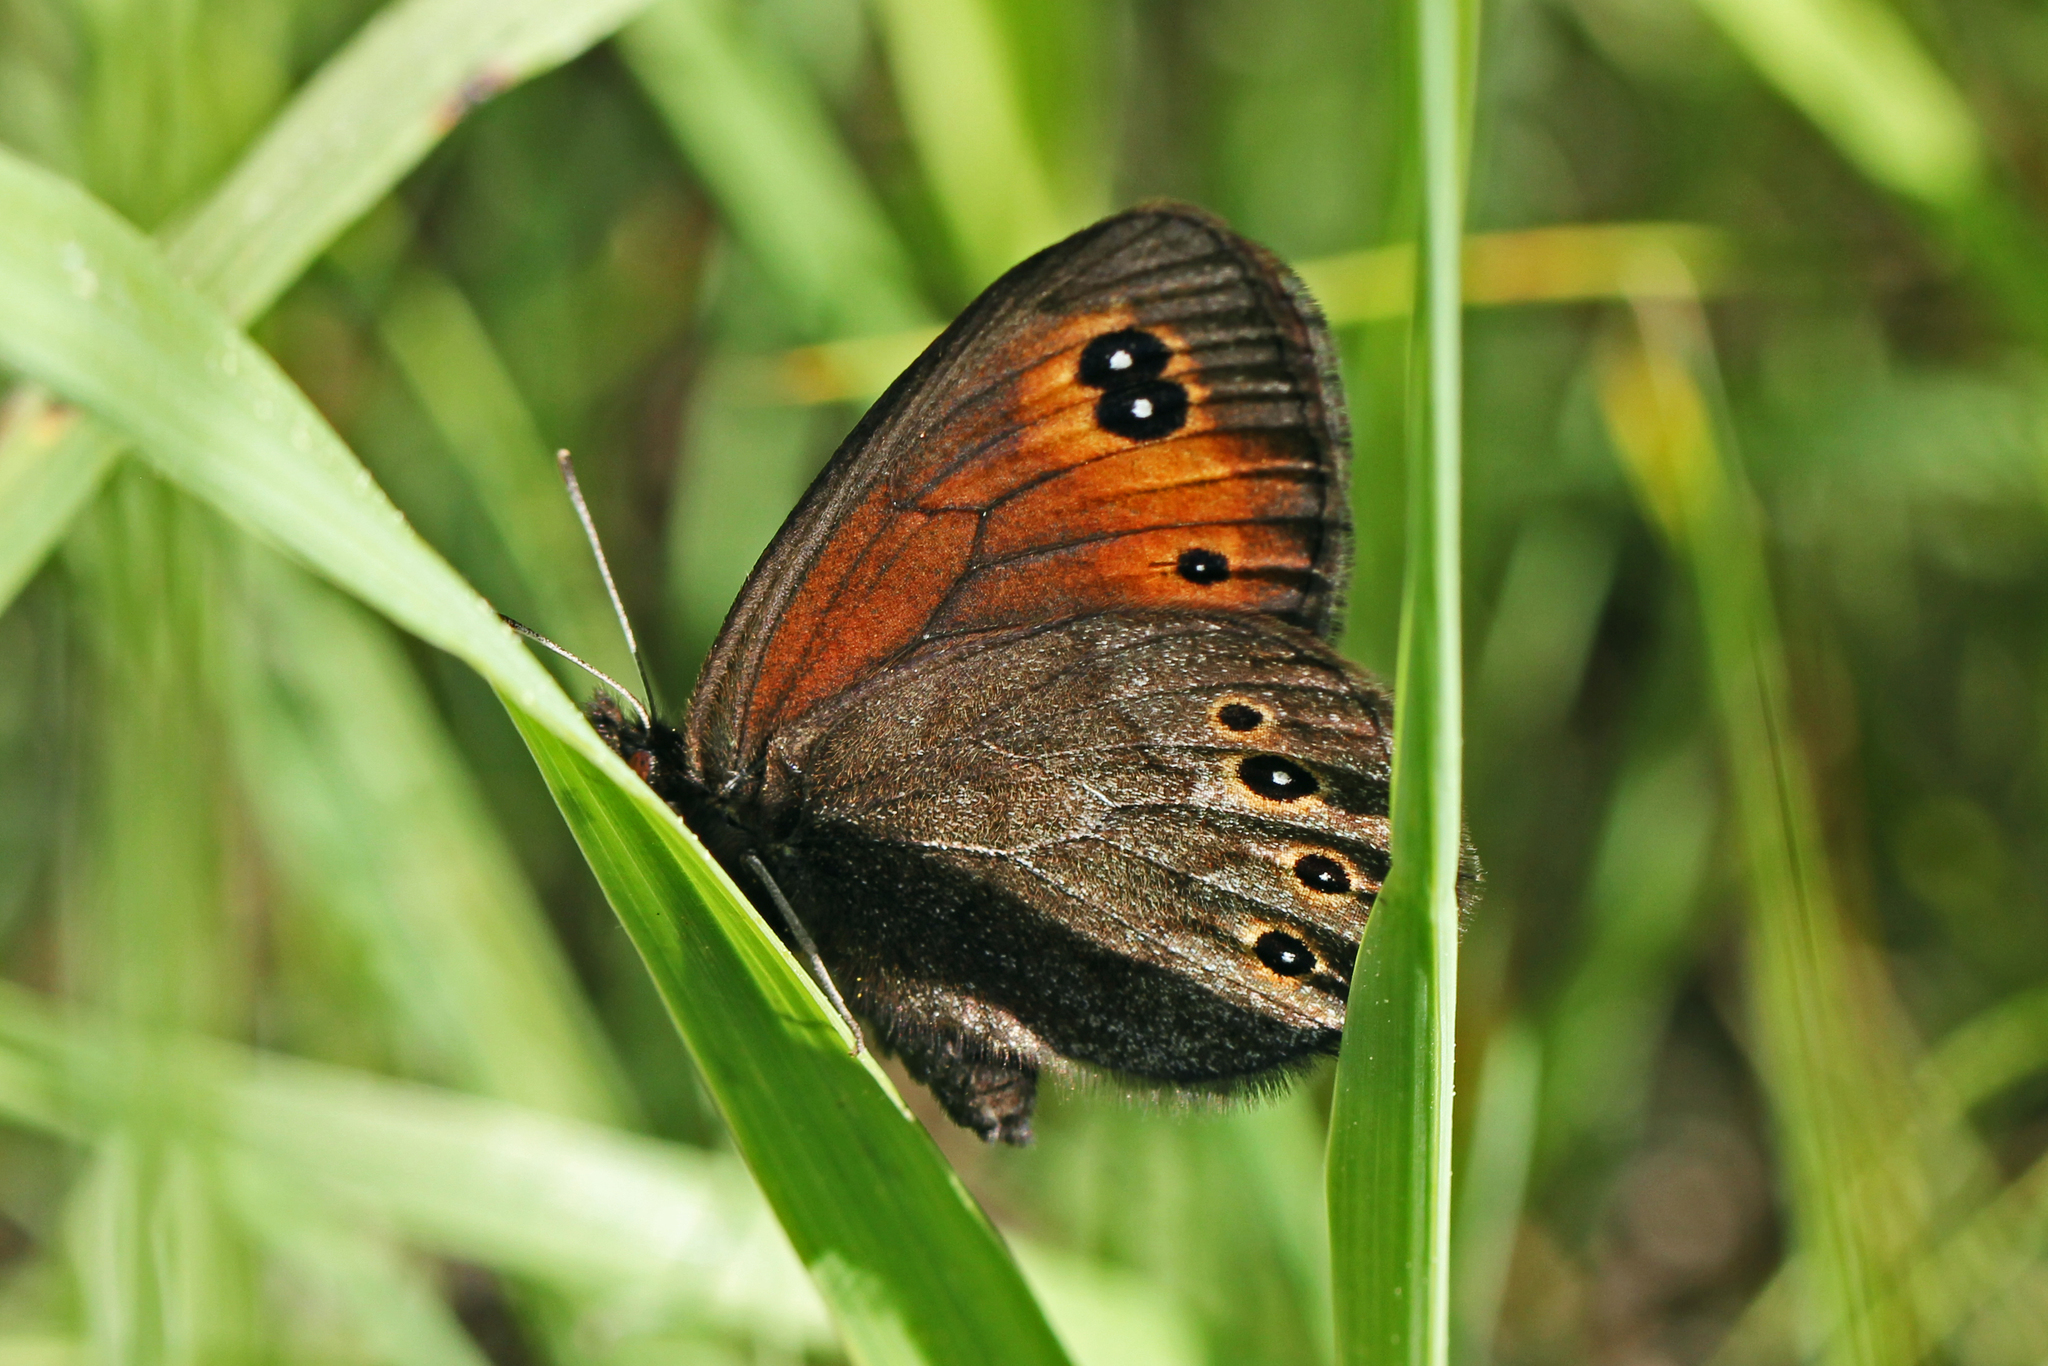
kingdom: Animalia
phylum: Arthropoda
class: Insecta
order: Lepidoptera
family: Nymphalidae
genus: Erebia
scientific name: Erebia epipsodea
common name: Common alpine
